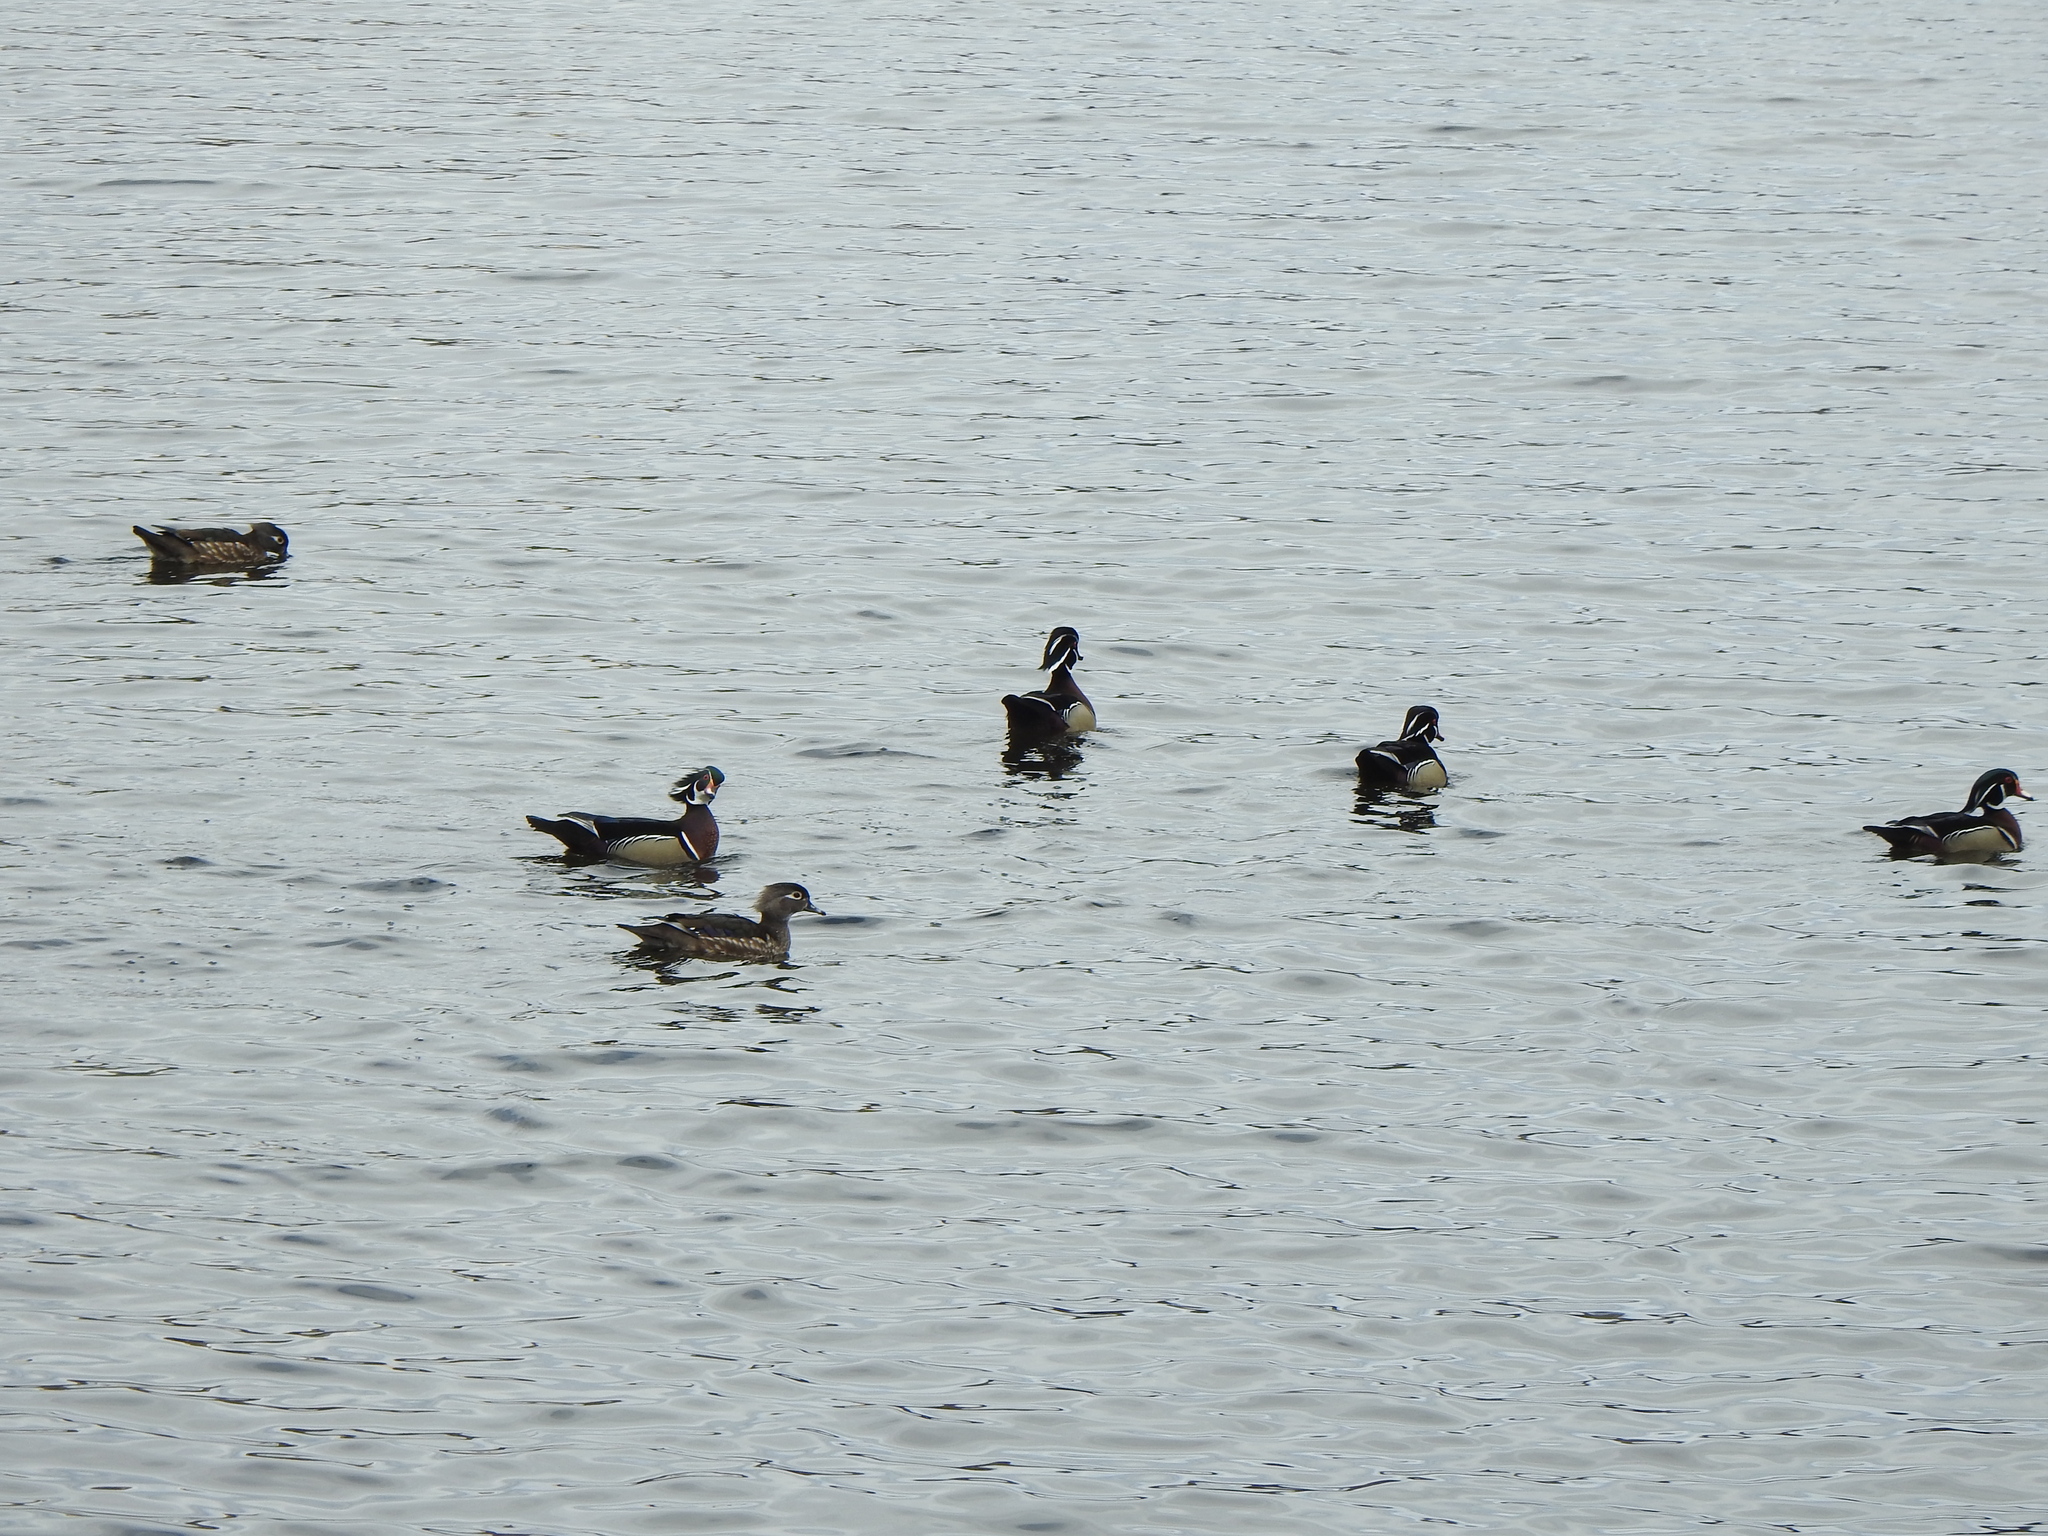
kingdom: Animalia
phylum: Chordata
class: Aves
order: Anseriformes
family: Anatidae
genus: Aix
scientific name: Aix sponsa
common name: Wood duck
